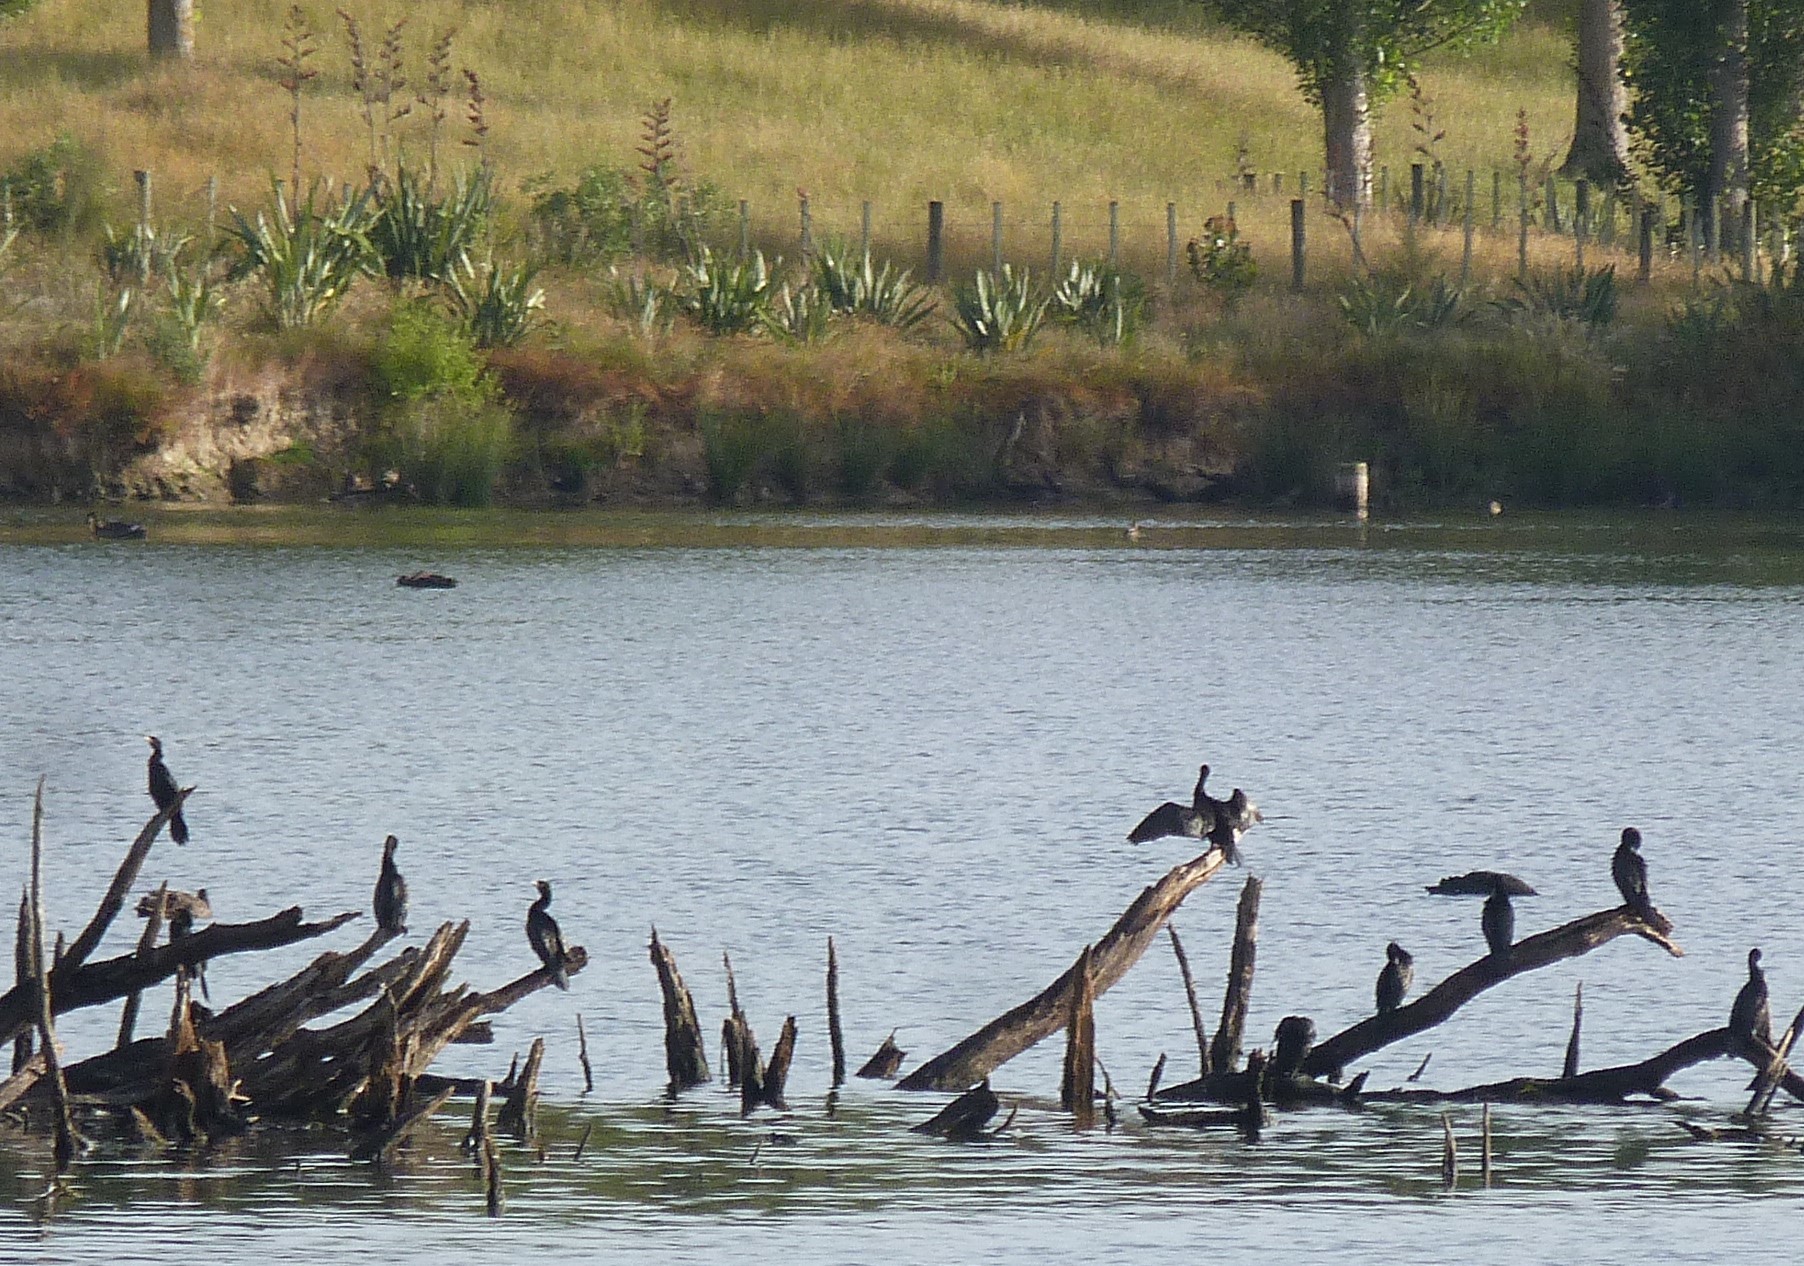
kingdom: Animalia
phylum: Chordata
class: Aves
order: Suliformes
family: Phalacrocoracidae
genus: Microcarbo
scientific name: Microcarbo melanoleucos
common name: Little pied cormorant
